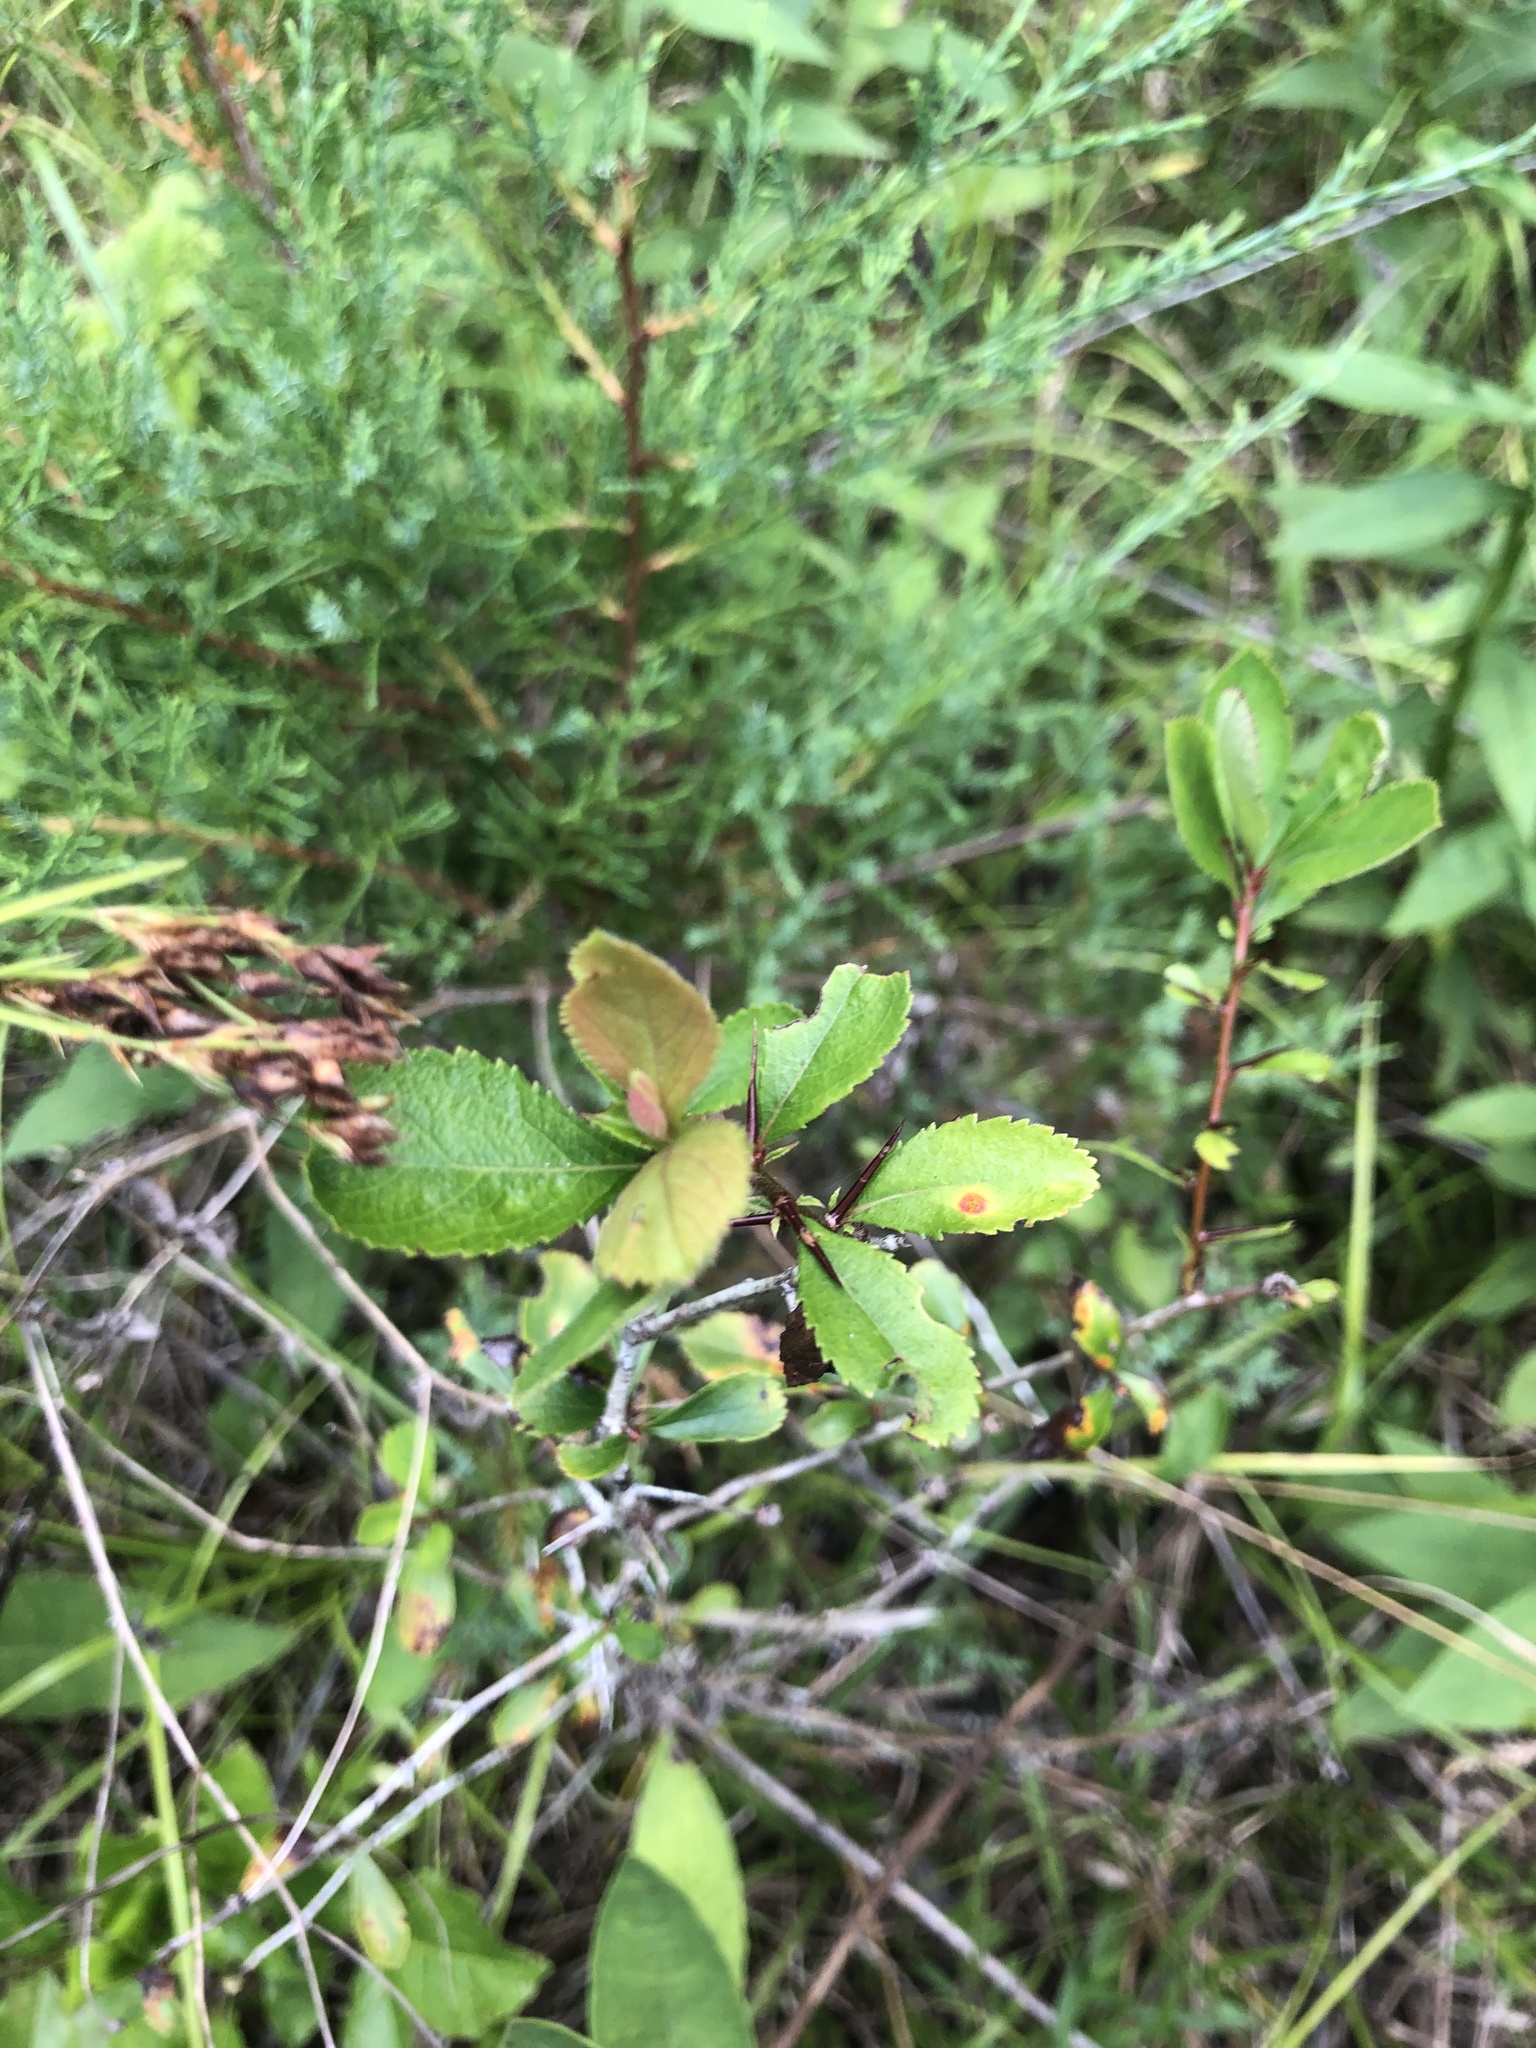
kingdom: Plantae
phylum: Tracheophyta
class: Magnoliopsida
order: Rosales
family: Rosaceae
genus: Crataegus
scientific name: Crataegus berberifolia
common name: Barberry hawthorn
